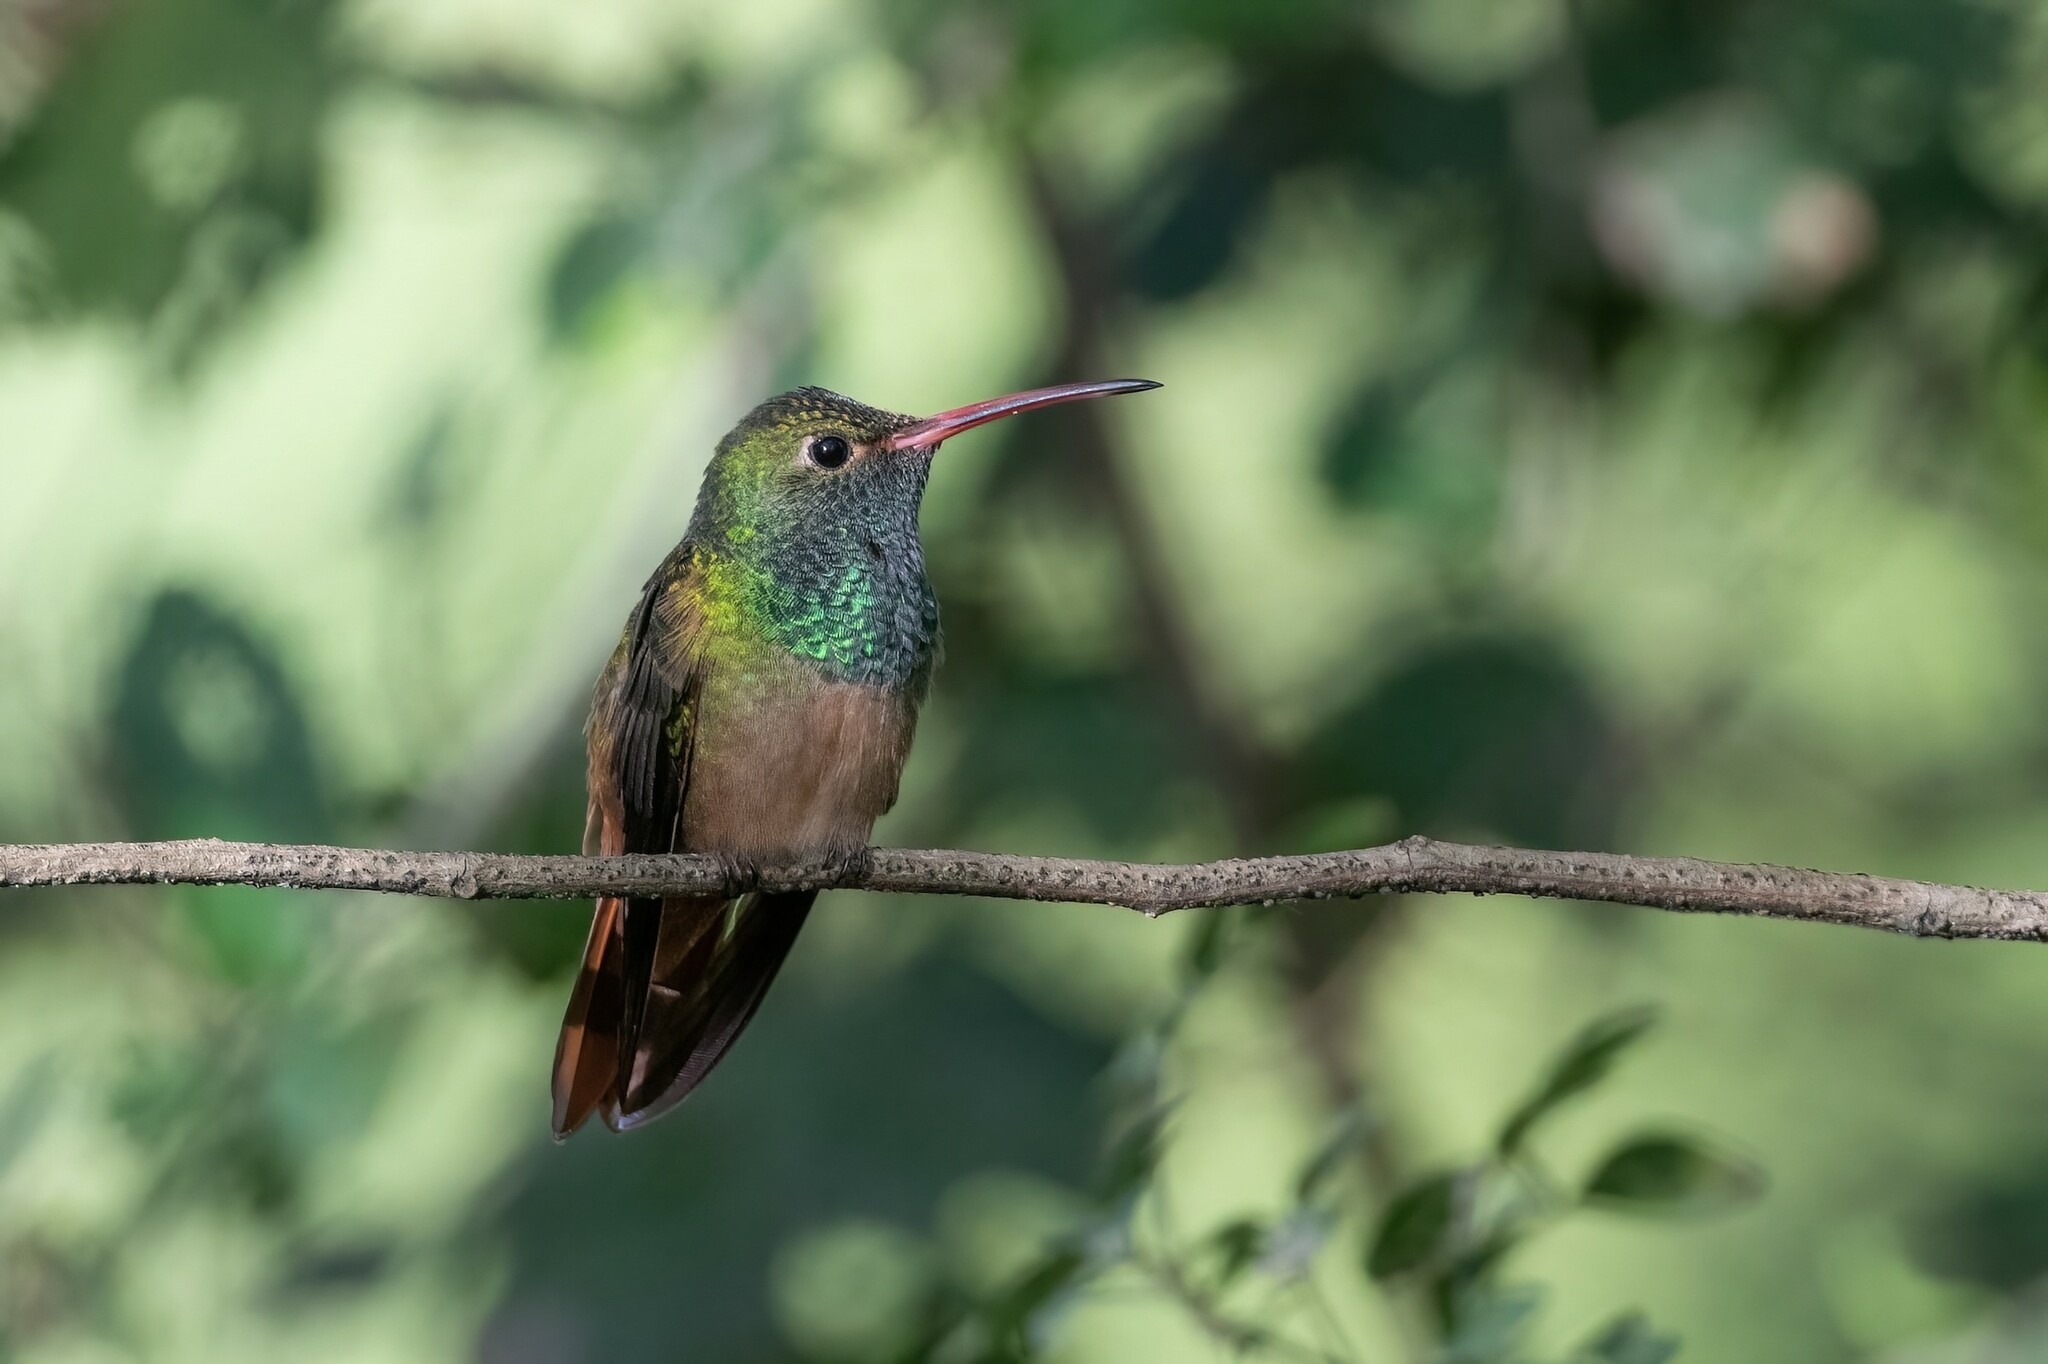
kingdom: Animalia
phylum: Chordata
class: Aves
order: Apodiformes
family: Trochilidae
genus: Amazilia
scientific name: Amazilia yucatanensis
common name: Buff-bellied hummingbird
